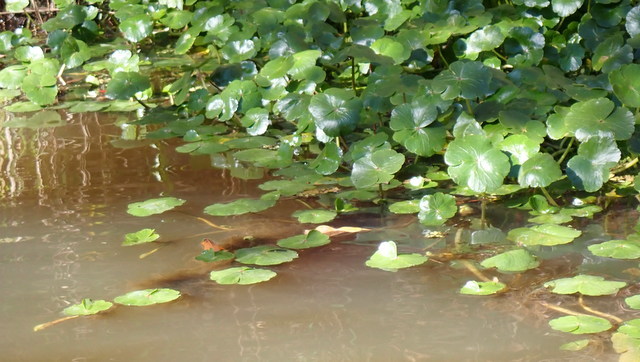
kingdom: Plantae
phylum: Tracheophyta
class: Magnoliopsida
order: Apiales
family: Araliaceae
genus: Hydrocotyle
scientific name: Hydrocotyle ranunculoides
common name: Floating pennywort
